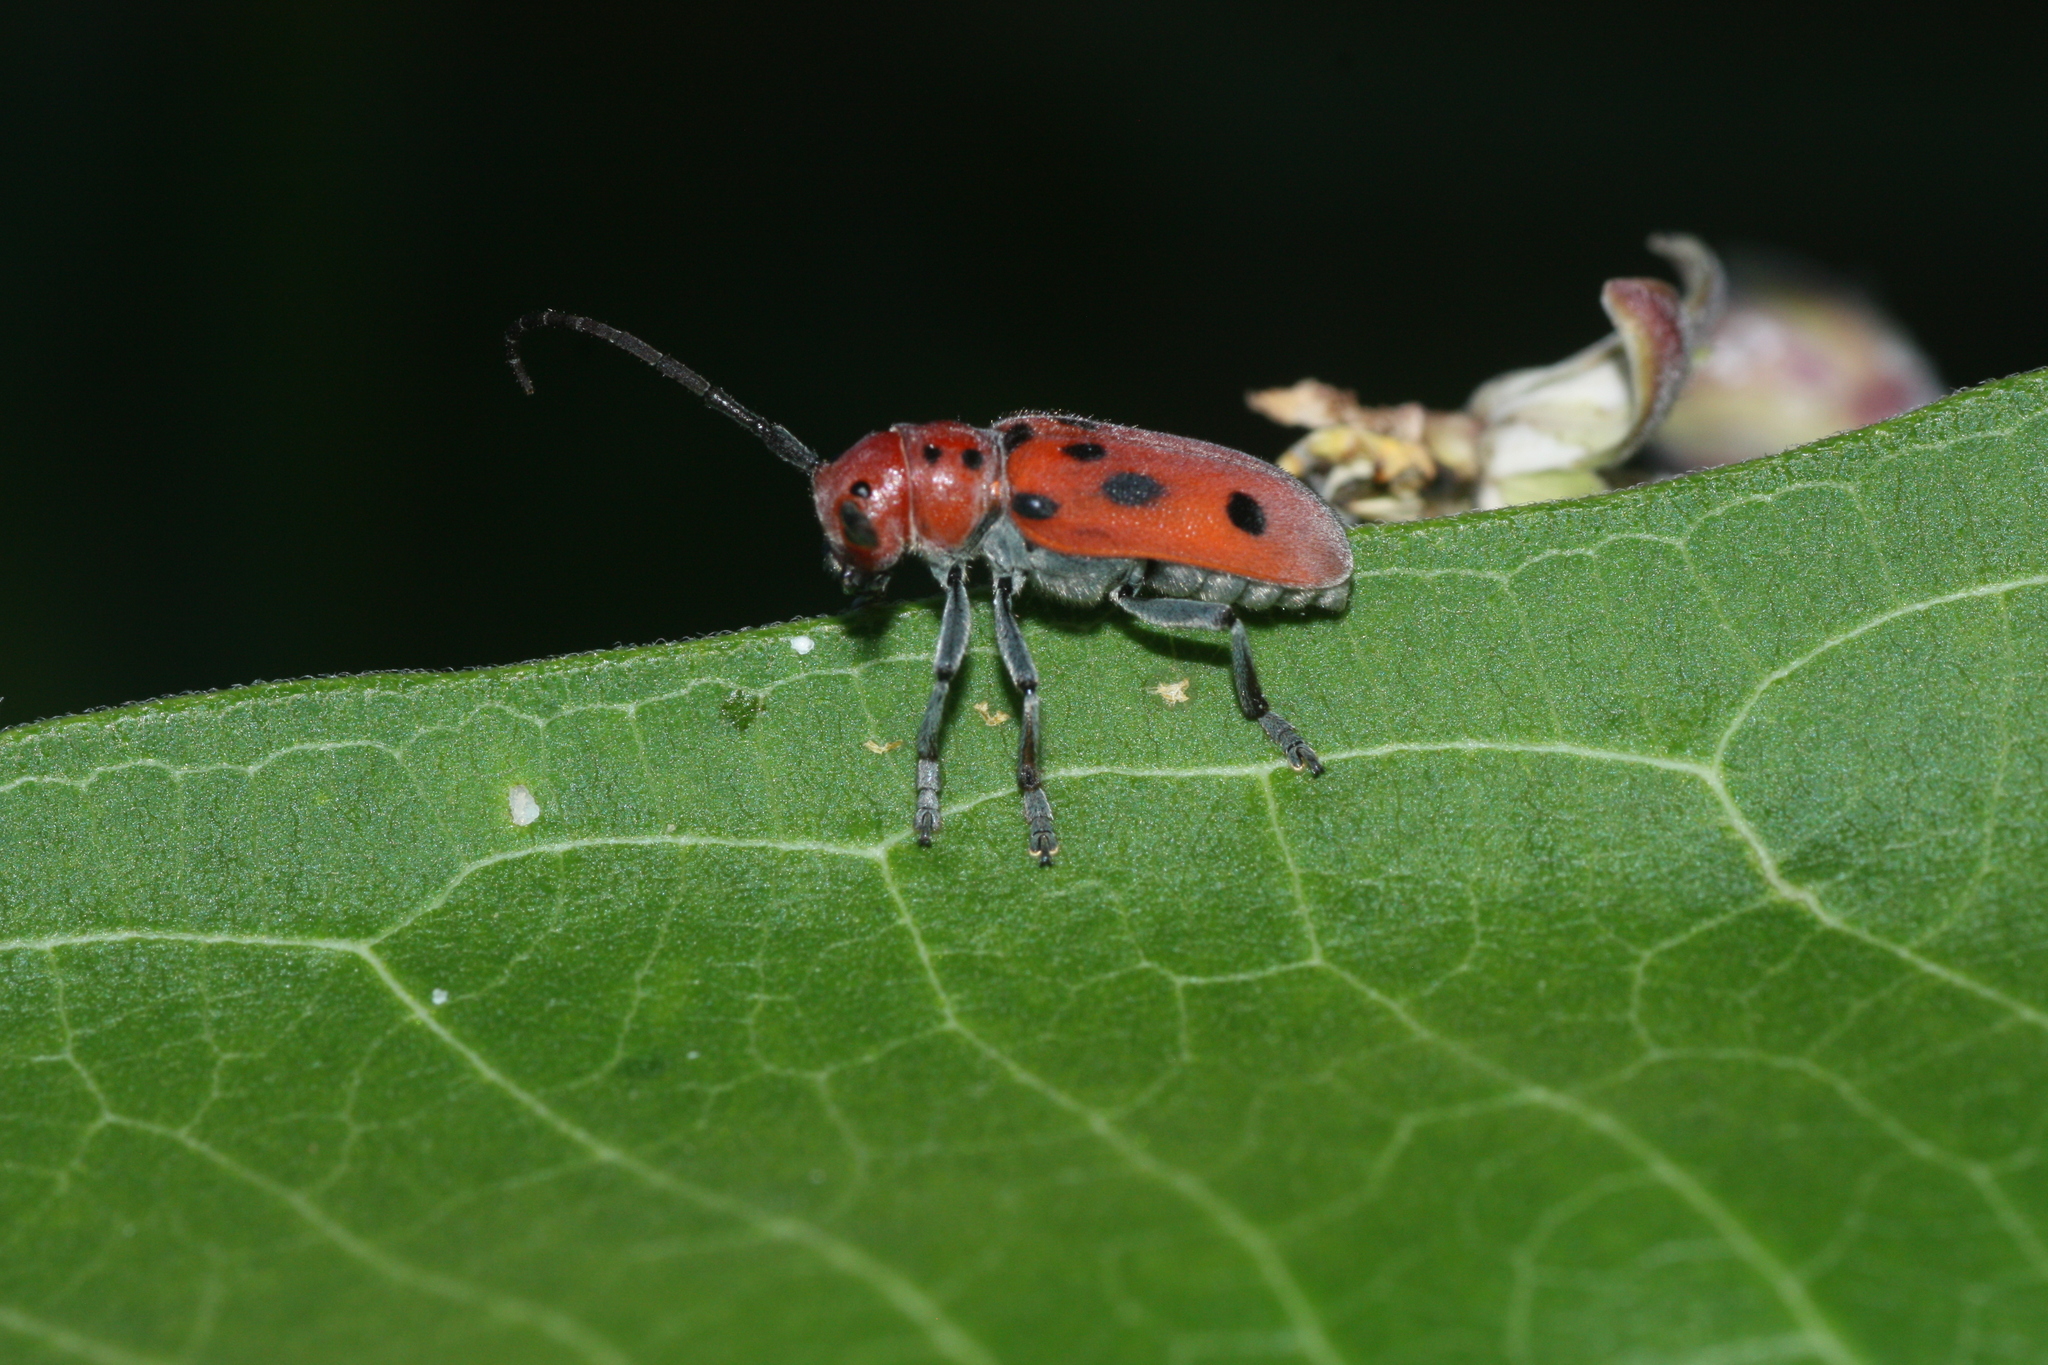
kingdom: Animalia
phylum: Arthropoda
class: Insecta
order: Coleoptera
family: Cerambycidae
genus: Tetraopes
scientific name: Tetraopes tetrophthalmus
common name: Red milkweed beetle
